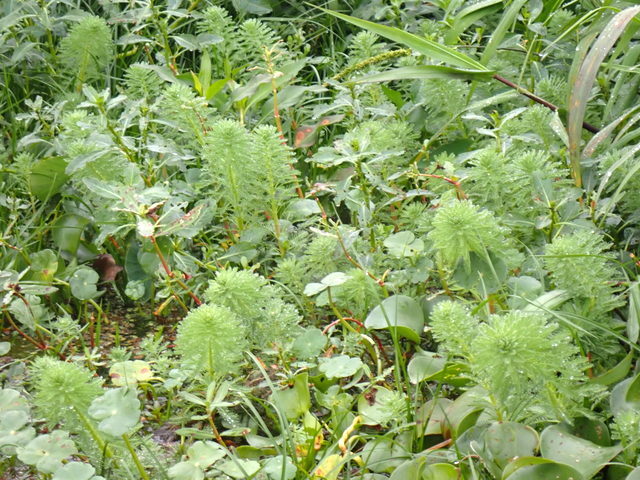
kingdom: Plantae
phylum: Tracheophyta
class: Magnoliopsida
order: Saxifragales
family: Haloragaceae
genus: Myriophyllum
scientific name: Myriophyllum aquaticum
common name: Parrot's feather
